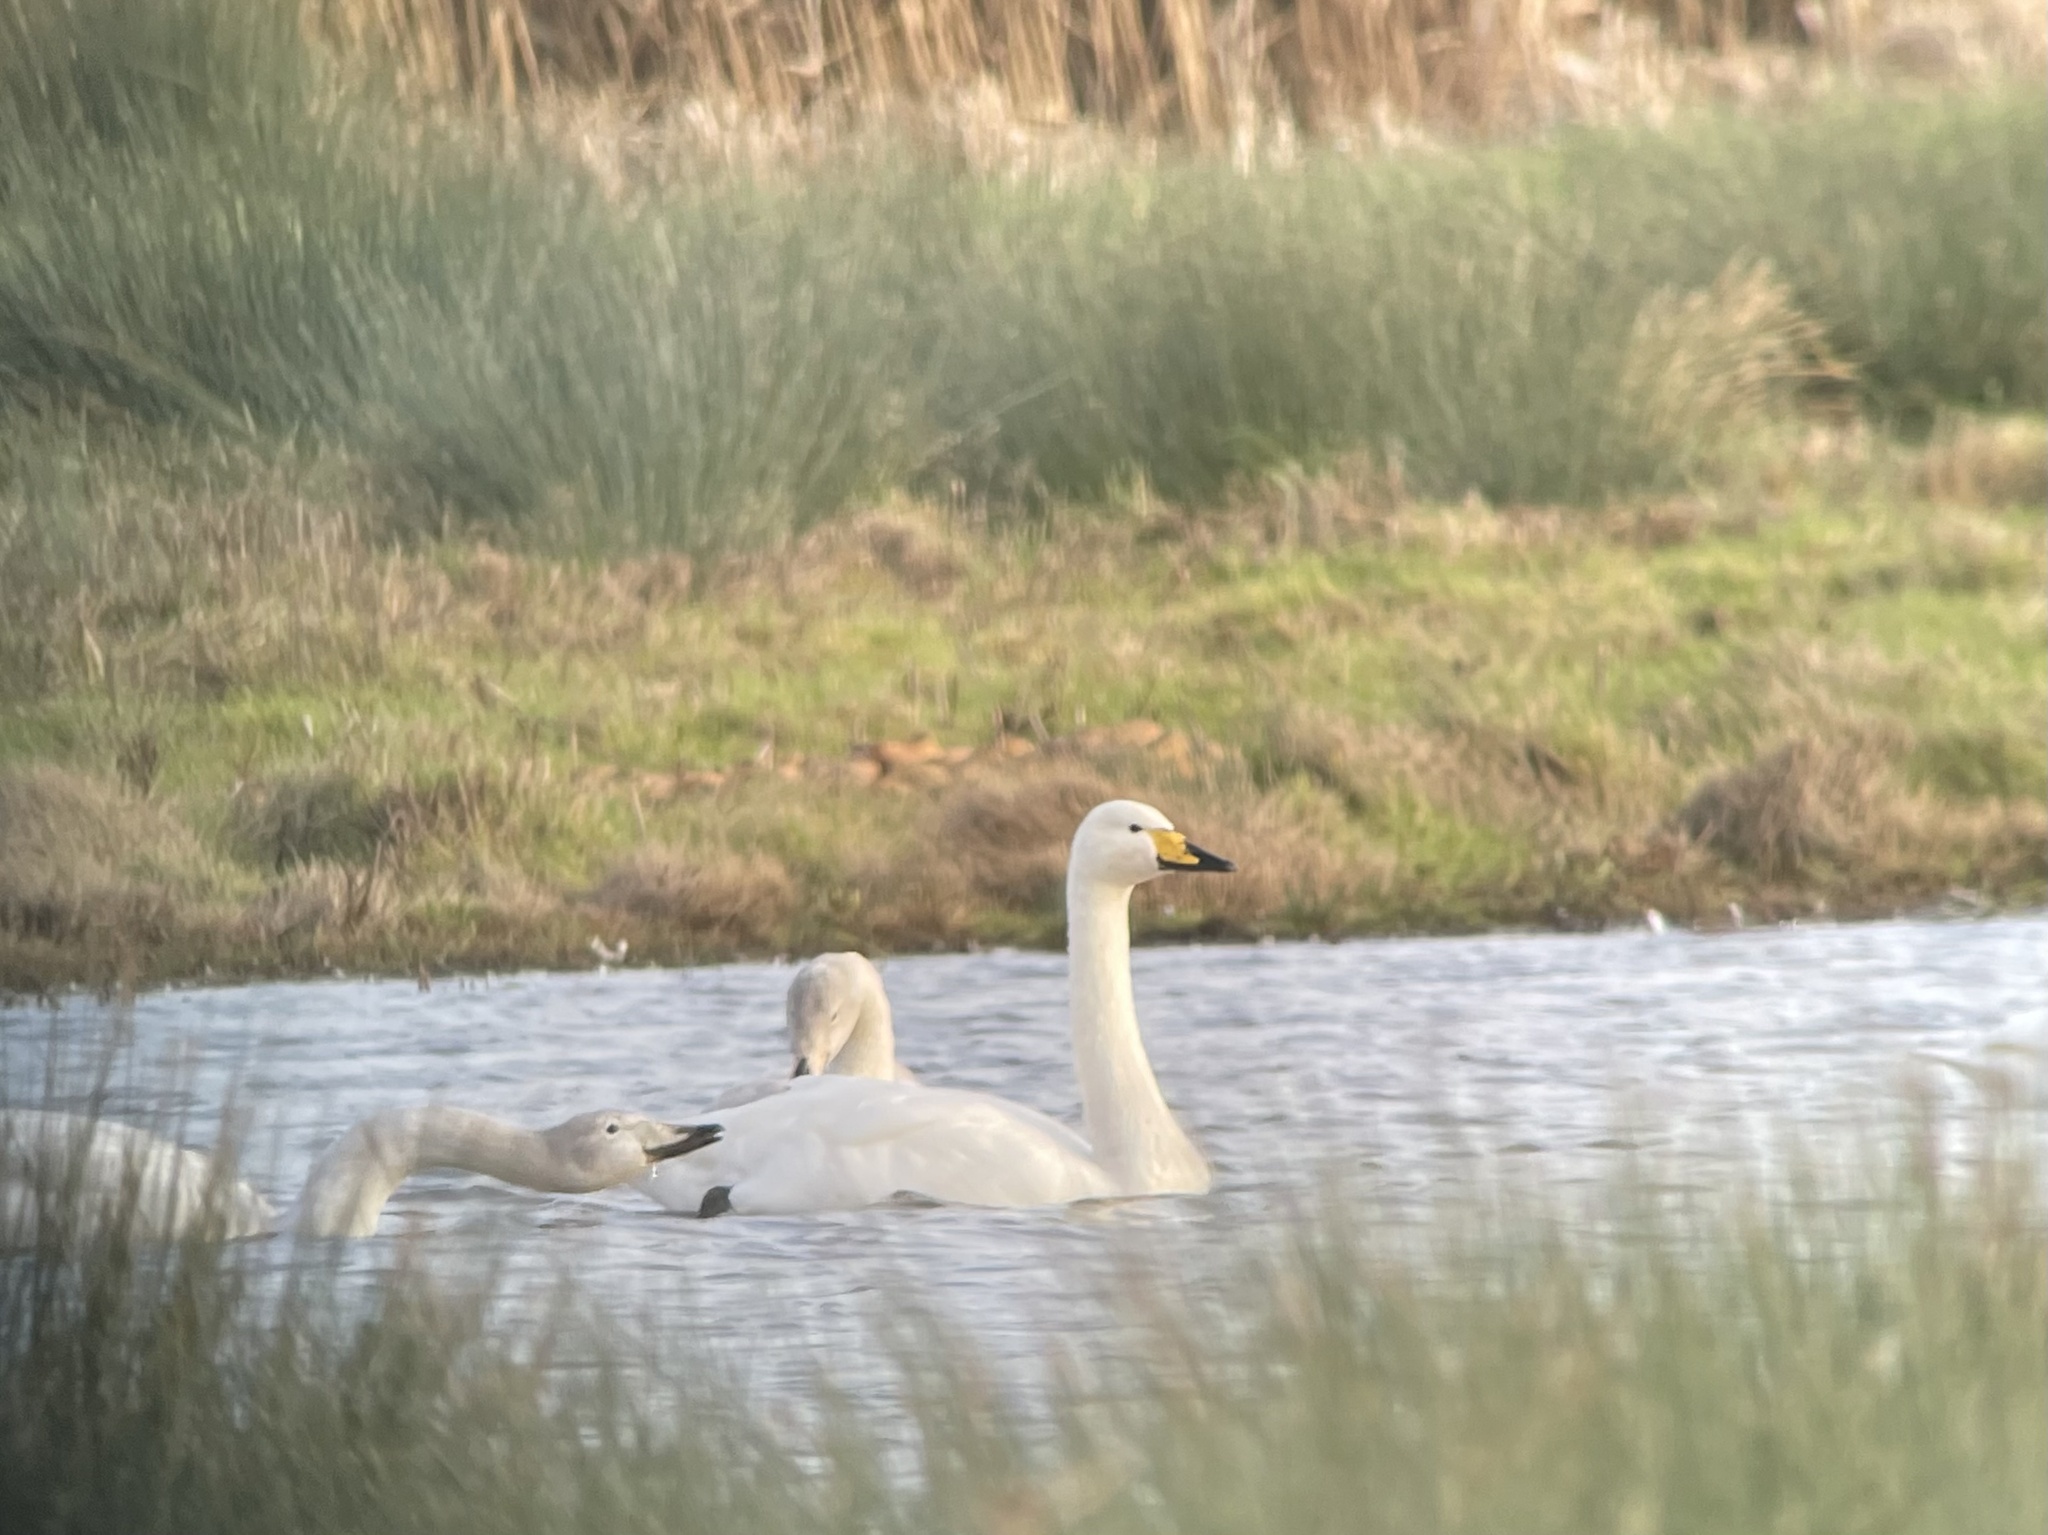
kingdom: Animalia
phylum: Chordata
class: Aves
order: Anseriformes
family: Anatidae
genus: Cygnus
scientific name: Cygnus cygnus
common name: Whooper swan
